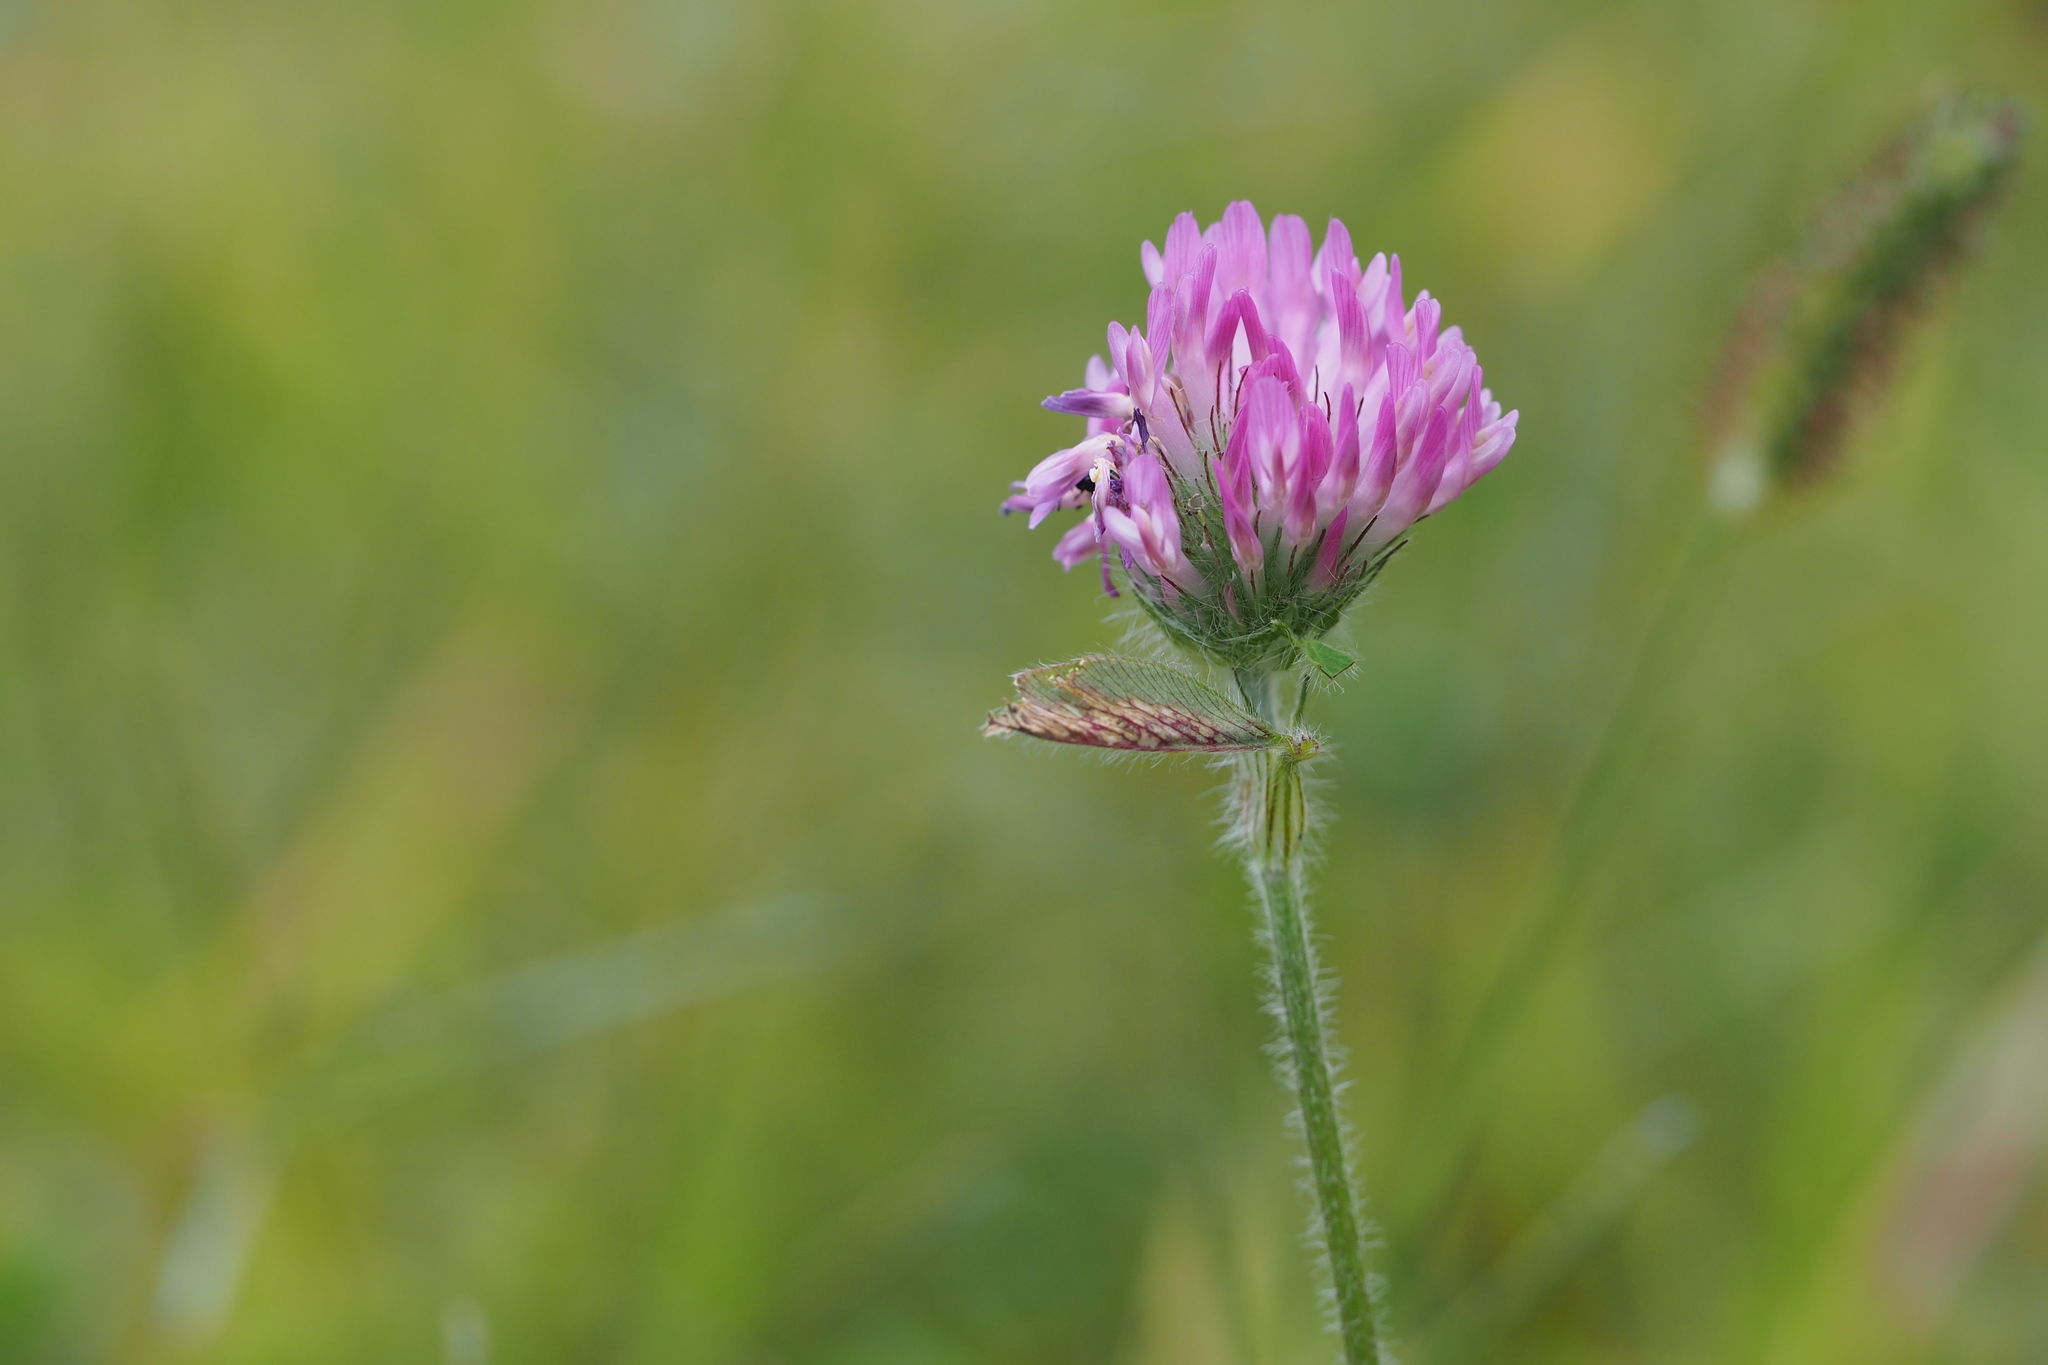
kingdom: Plantae
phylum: Tracheophyta
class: Magnoliopsida
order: Fabales
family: Fabaceae
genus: Trifolium
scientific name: Trifolium pratense
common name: Red clover
